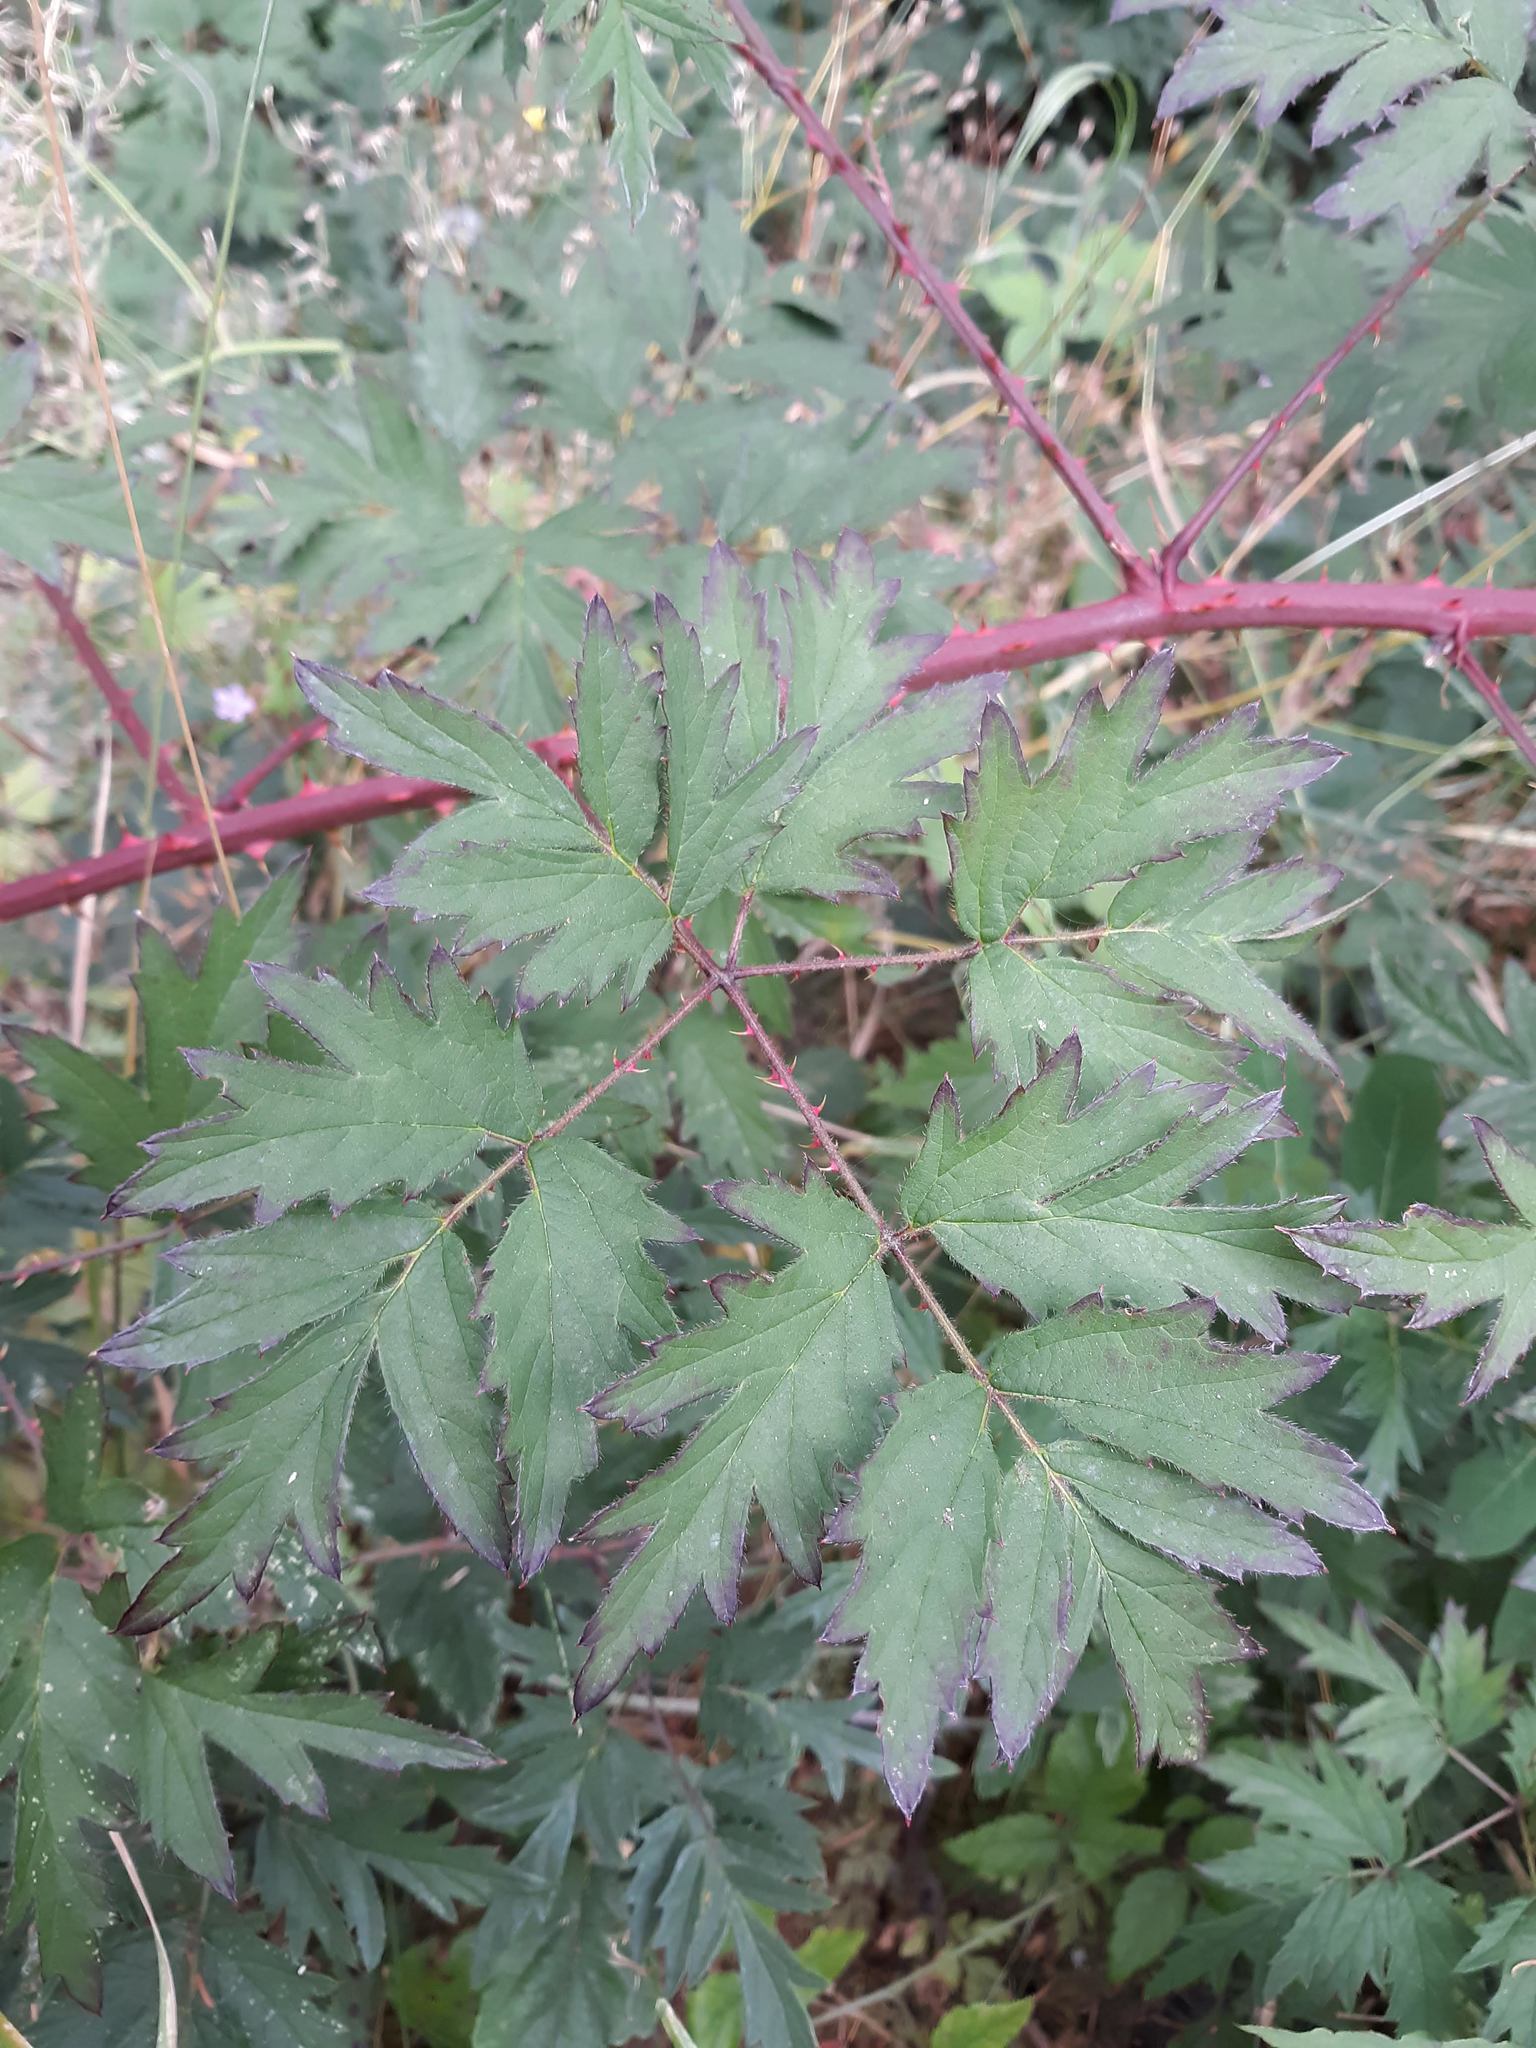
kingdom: Plantae
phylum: Tracheophyta
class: Magnoliopsida
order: Rosales
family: Rosaceae
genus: Rubus
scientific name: Rubus laciniatus
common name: Evergreen blackberry
